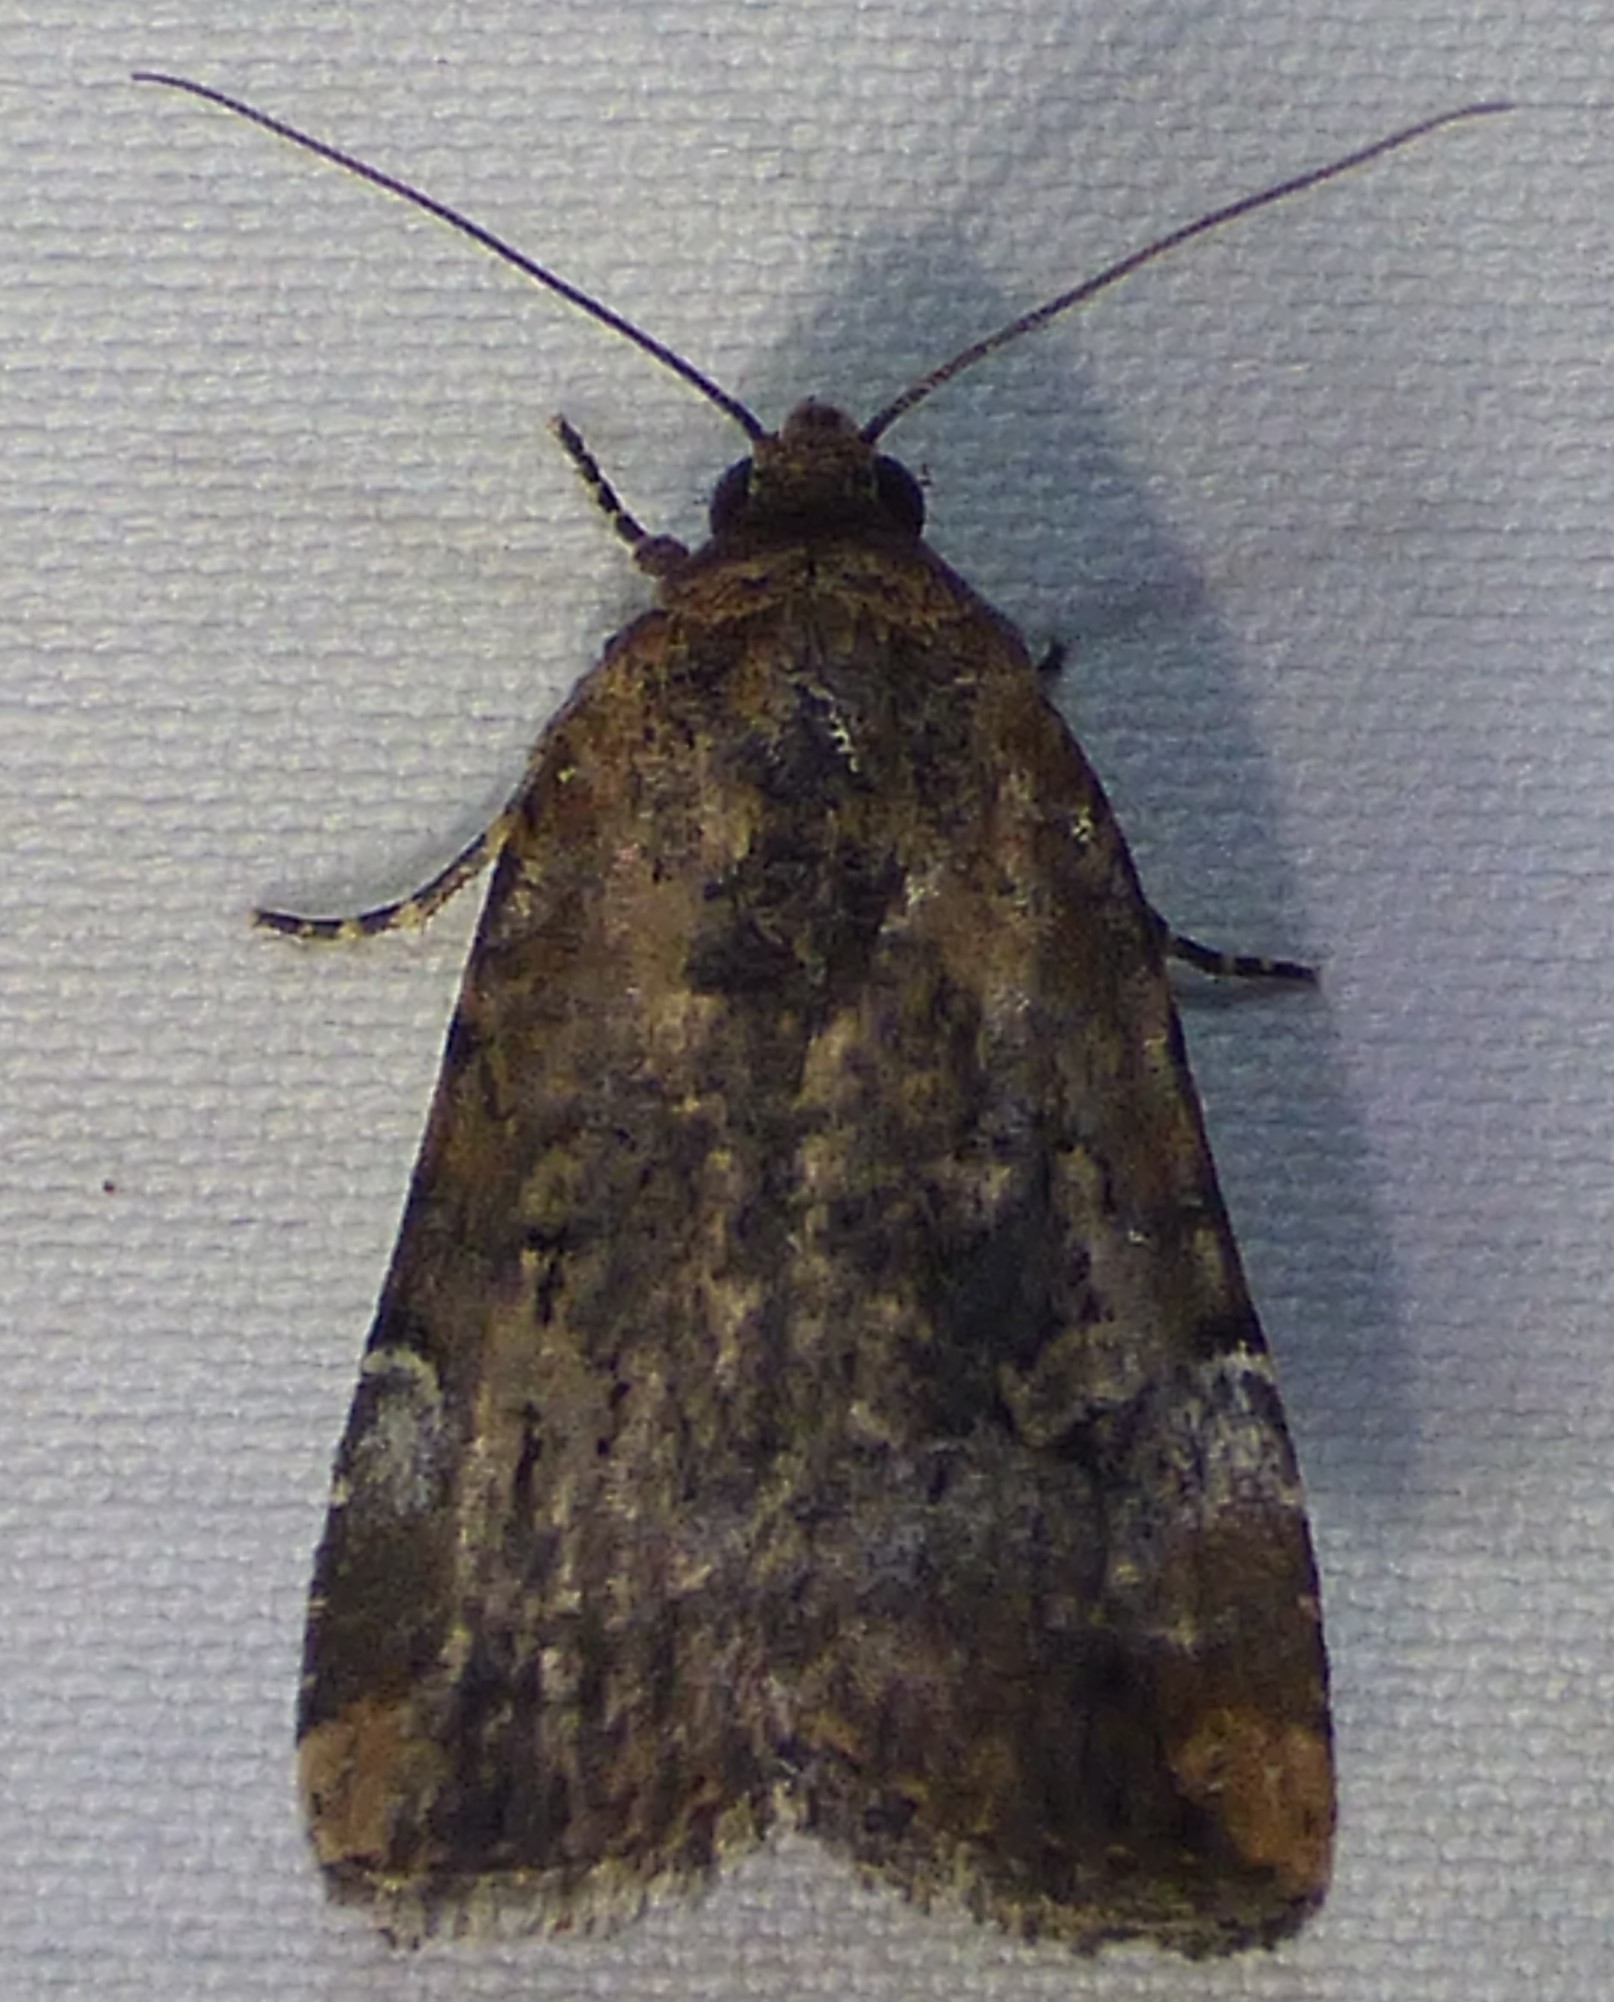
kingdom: Animalia
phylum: Arthropoda
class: Insecta
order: Lepidoptera
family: Noctuidae
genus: Elaphria
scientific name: Elaphria chalcedonia
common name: Chalcedony midget
